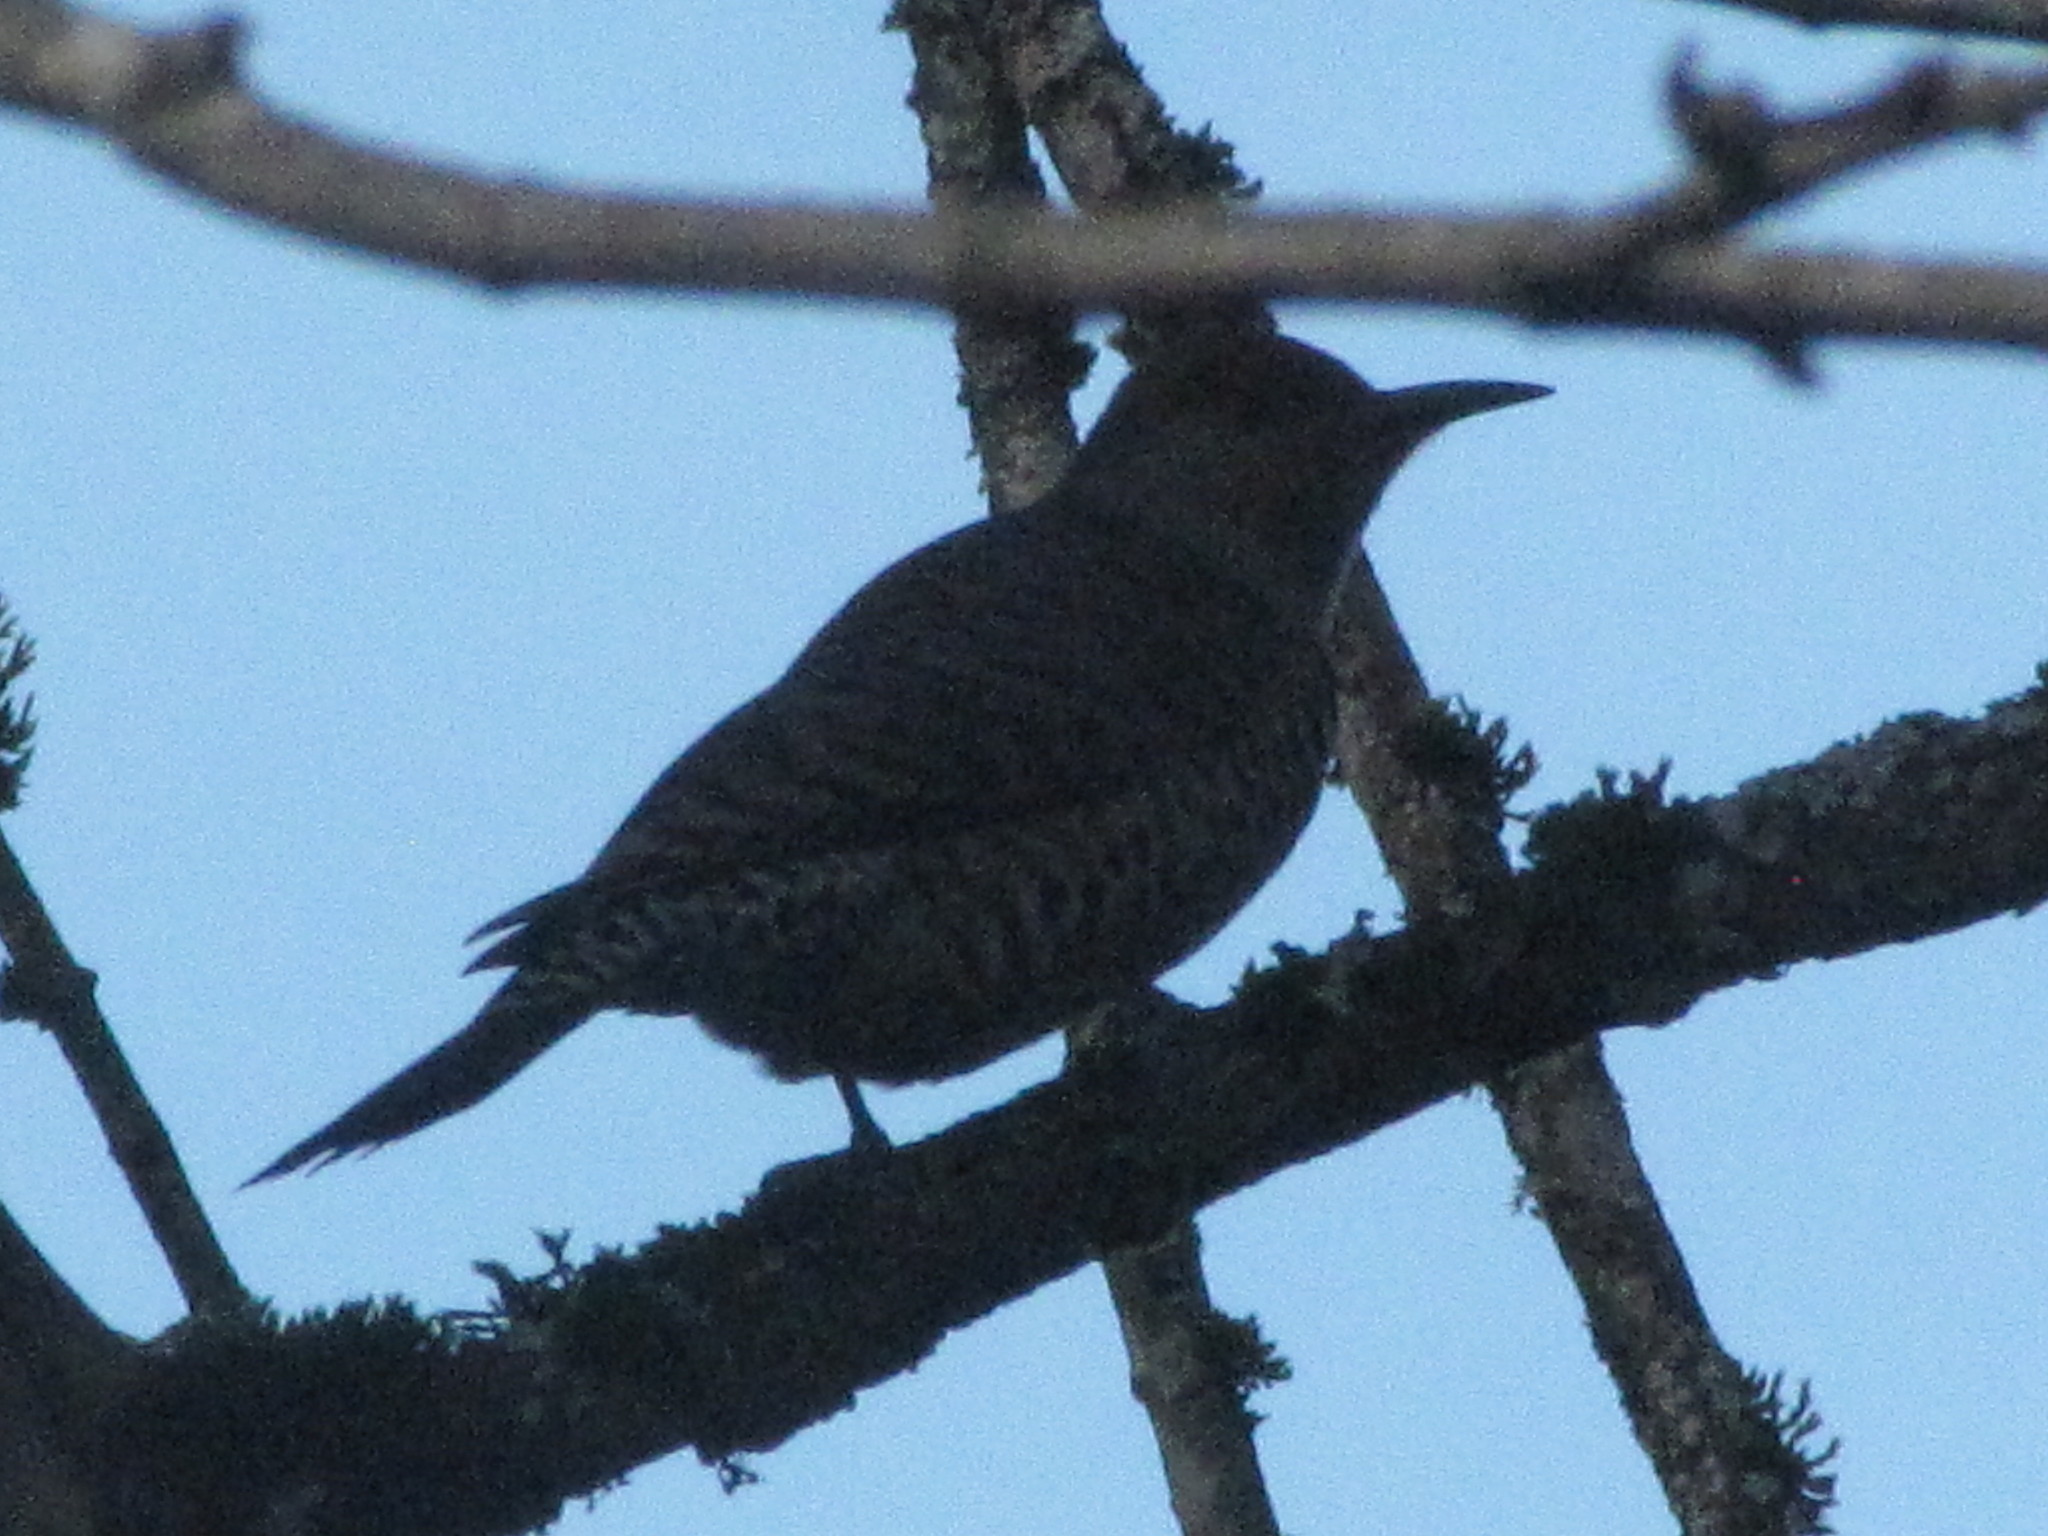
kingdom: Animalia
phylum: Chordata
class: Aves
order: Piciformes
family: Picidae
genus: Colaptes
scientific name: Colaptes auratus
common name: Northern flicker
